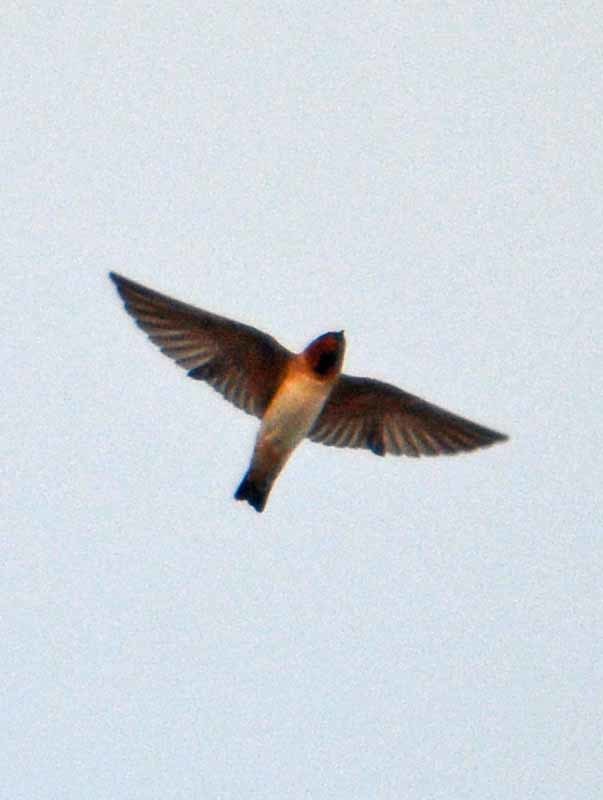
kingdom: Animalia
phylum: Chordata
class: Aves
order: Passeriformes
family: Hirundinidae
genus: Petrochelidon
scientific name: Petrochelidon fulva
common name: Cave swallow
